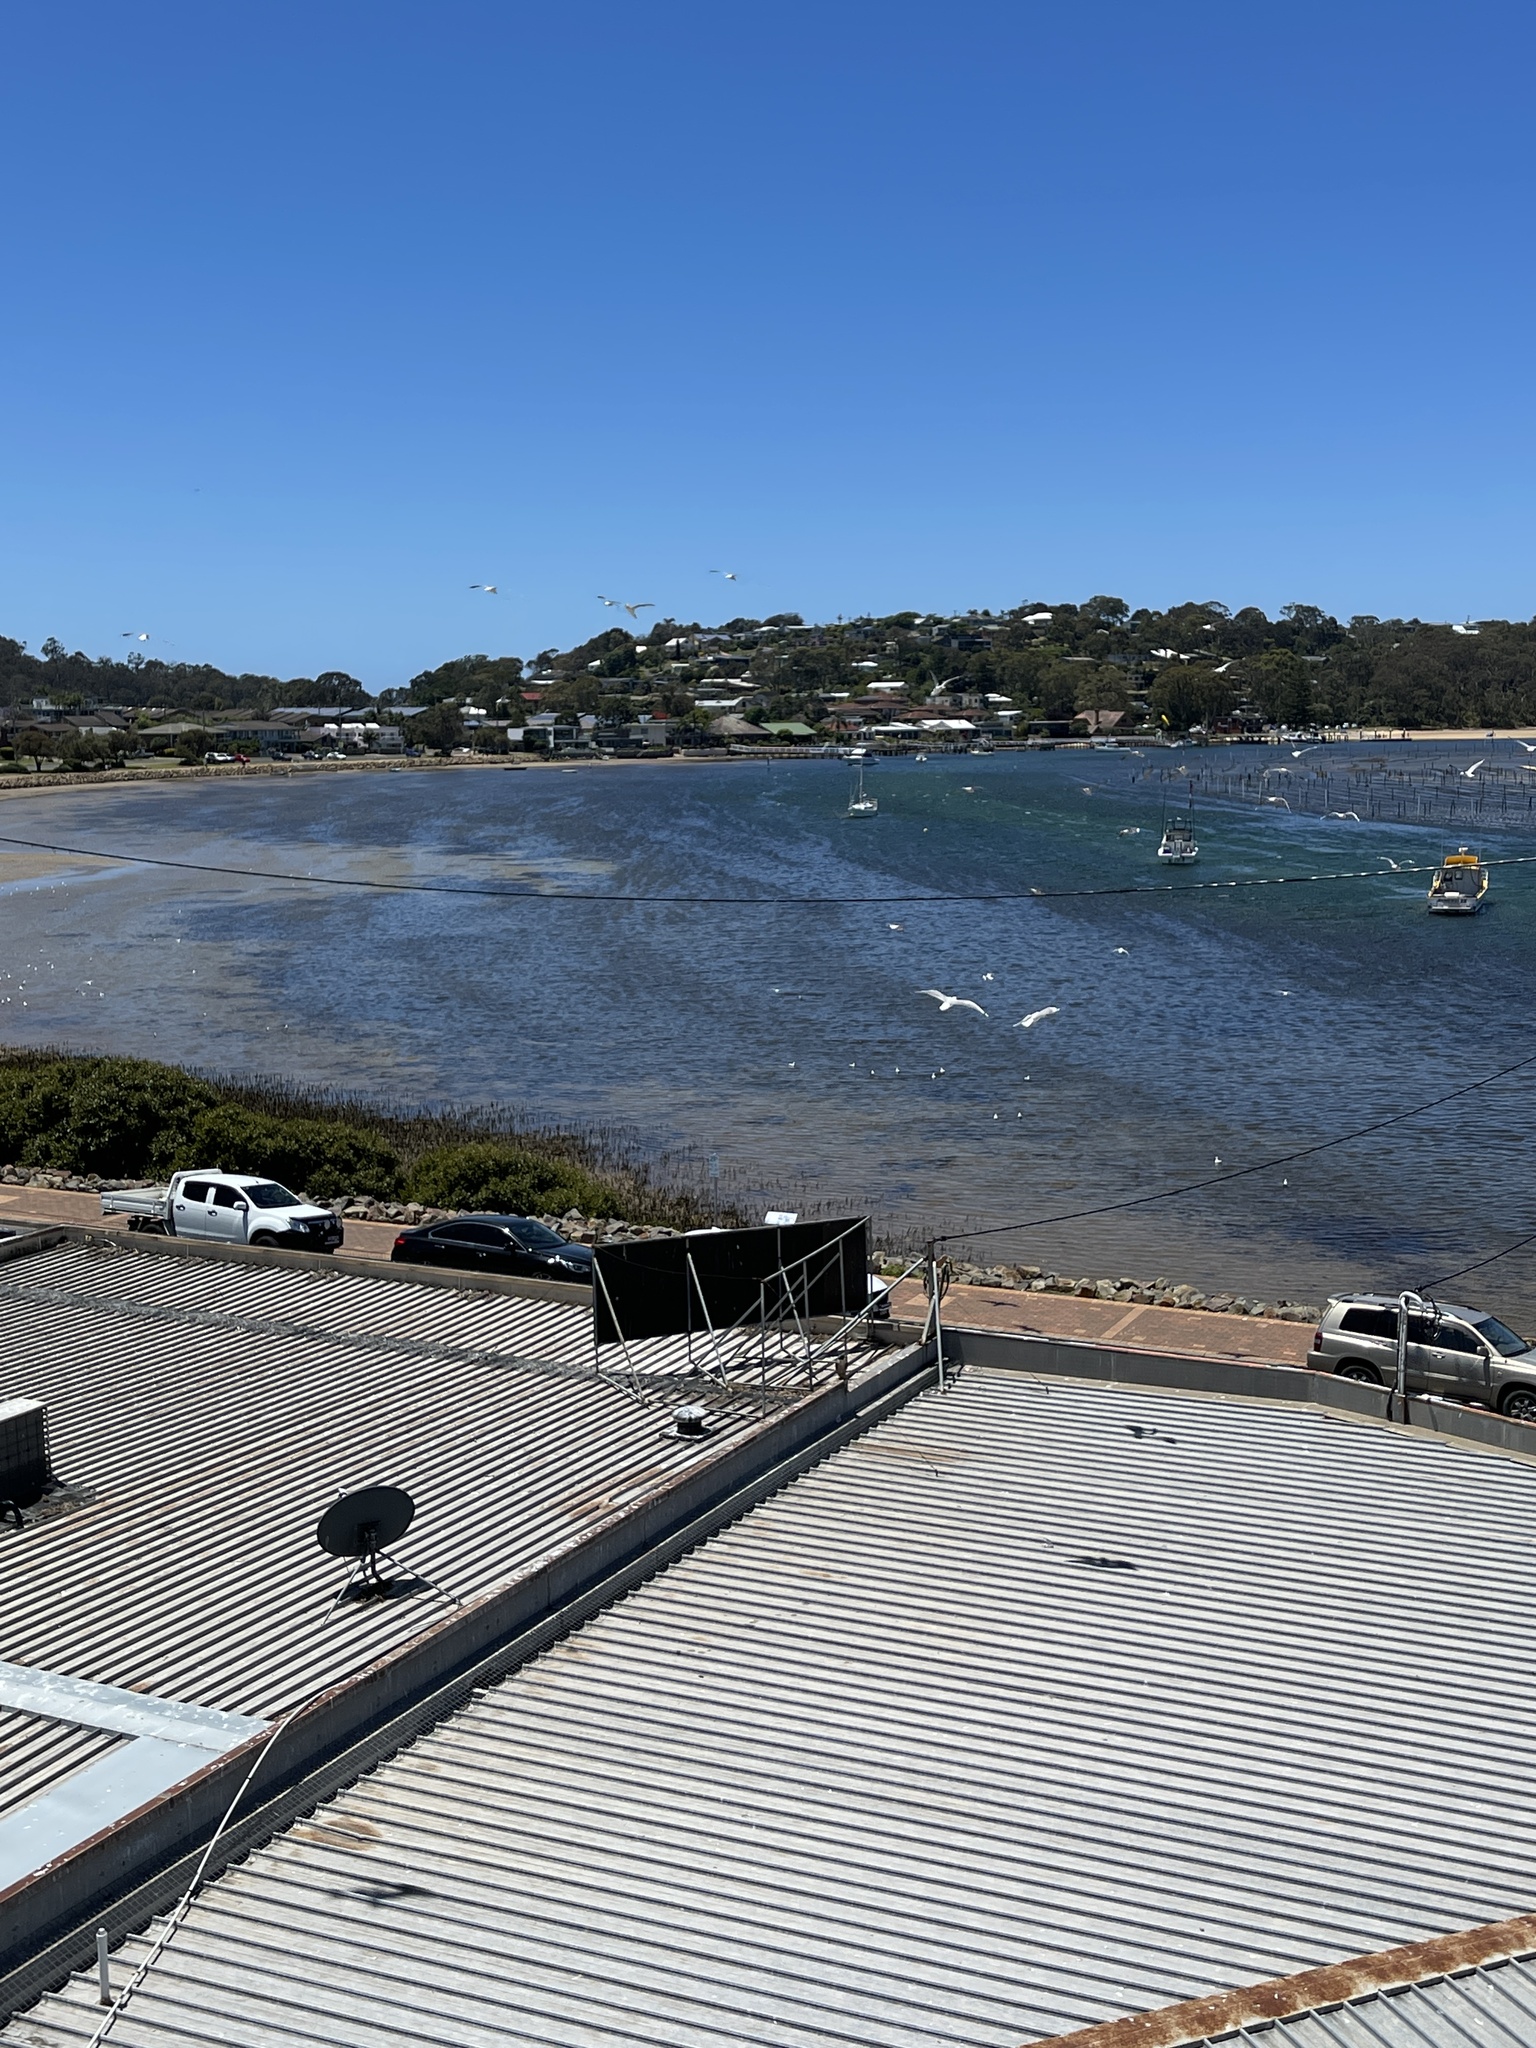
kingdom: Animalia
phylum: Chordata
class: Aves
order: Falconiformes
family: Falconidae
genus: Falco
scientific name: Falco peregrinus
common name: Peregrine falcon
